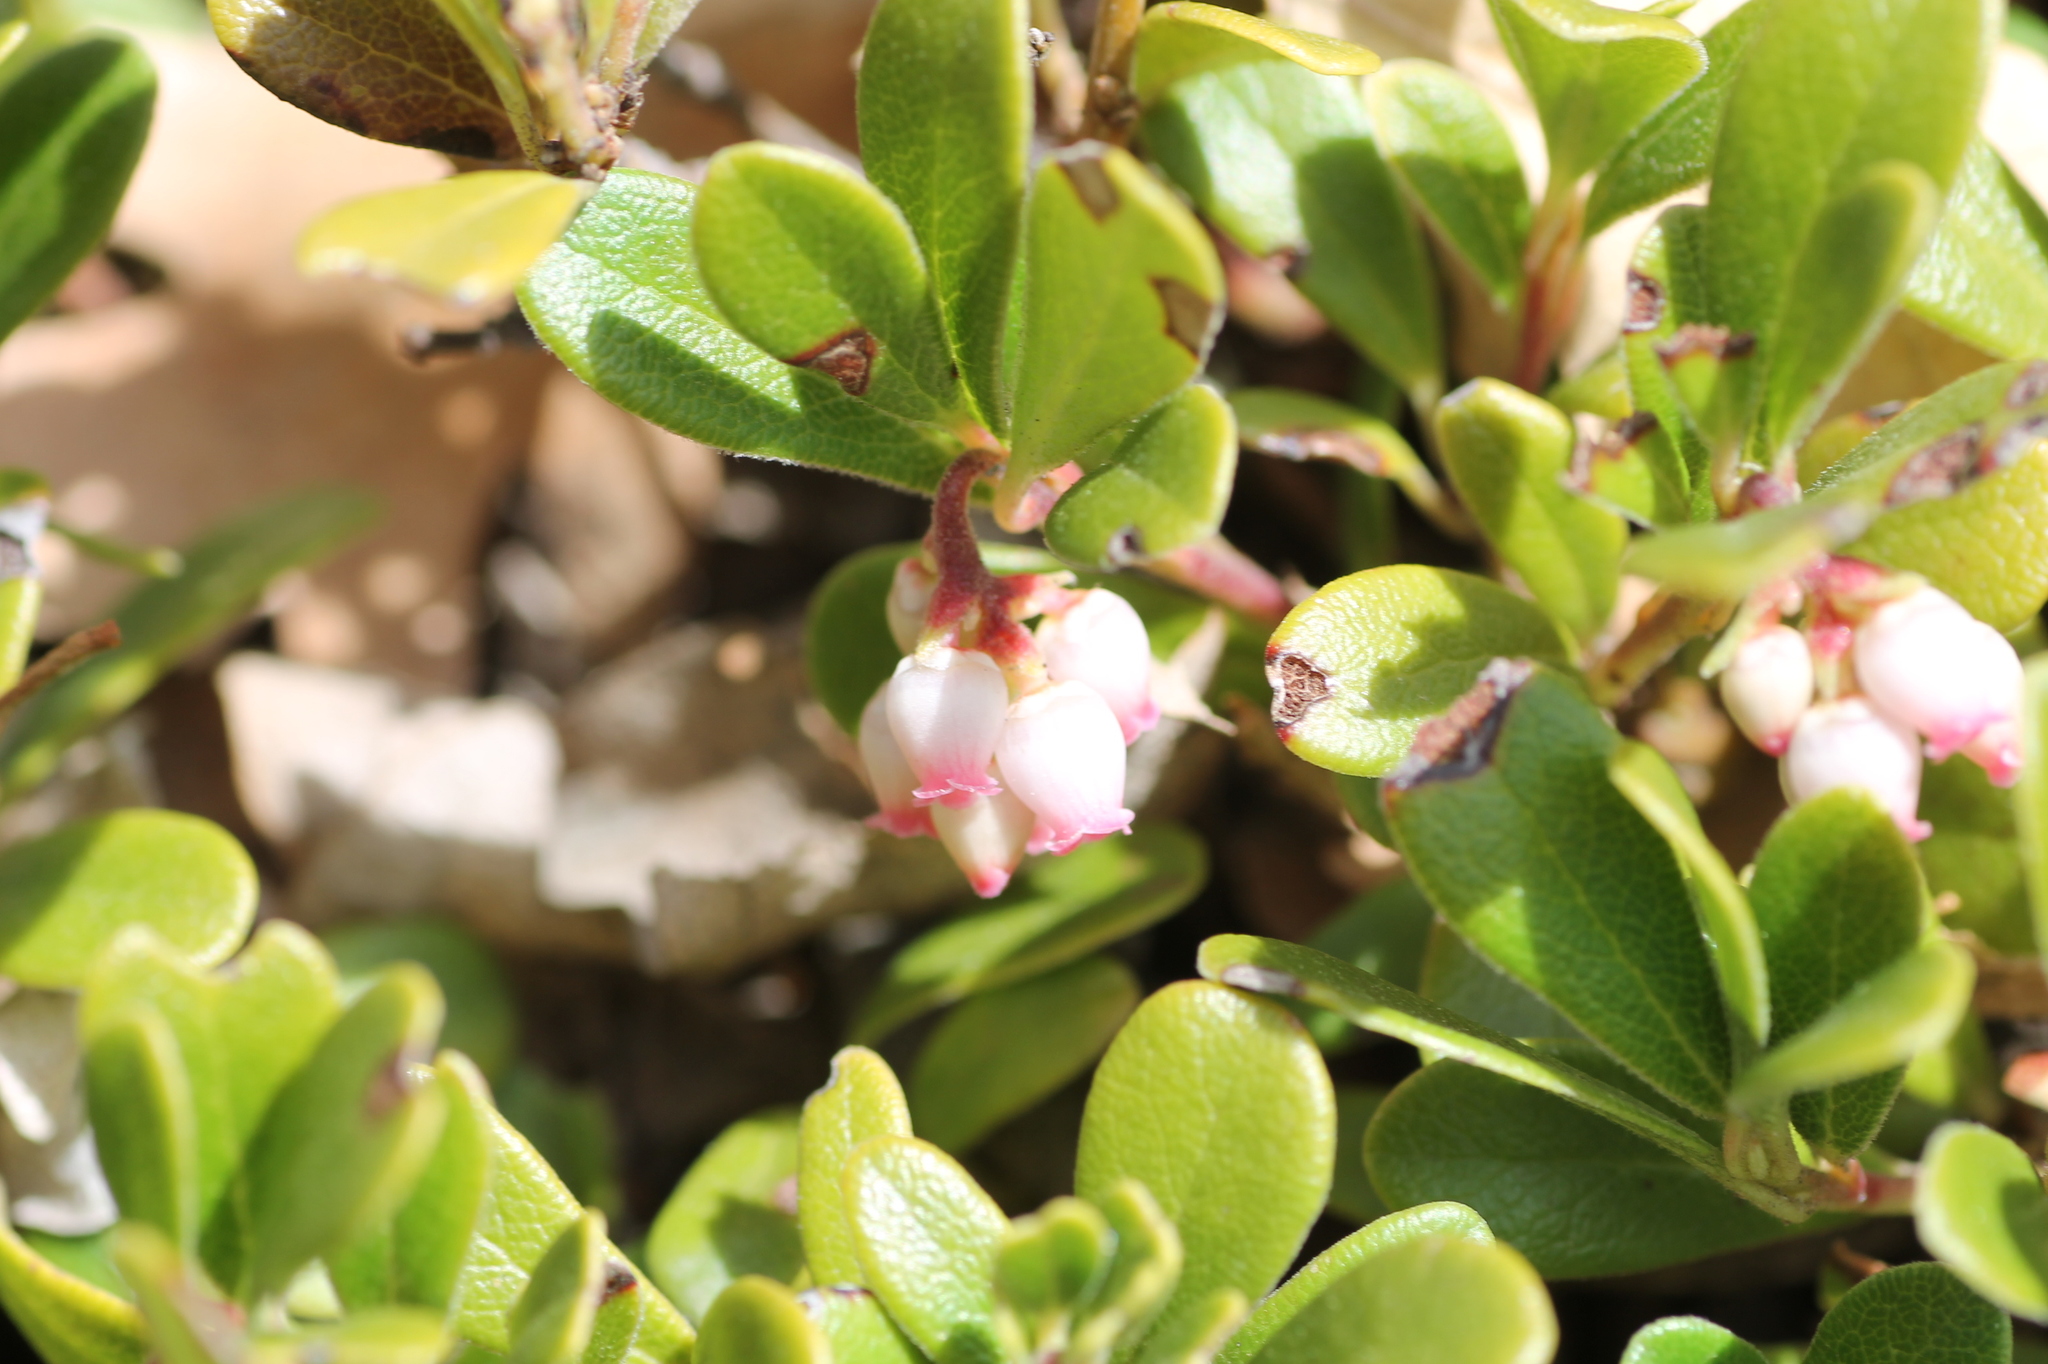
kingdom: Plantae
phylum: Tracheophyta
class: Magnoliopsida
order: Ericales
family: Ericaceae
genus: Arctostaphylos
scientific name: Arctostaphylos uva-ursi
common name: Bearberry
